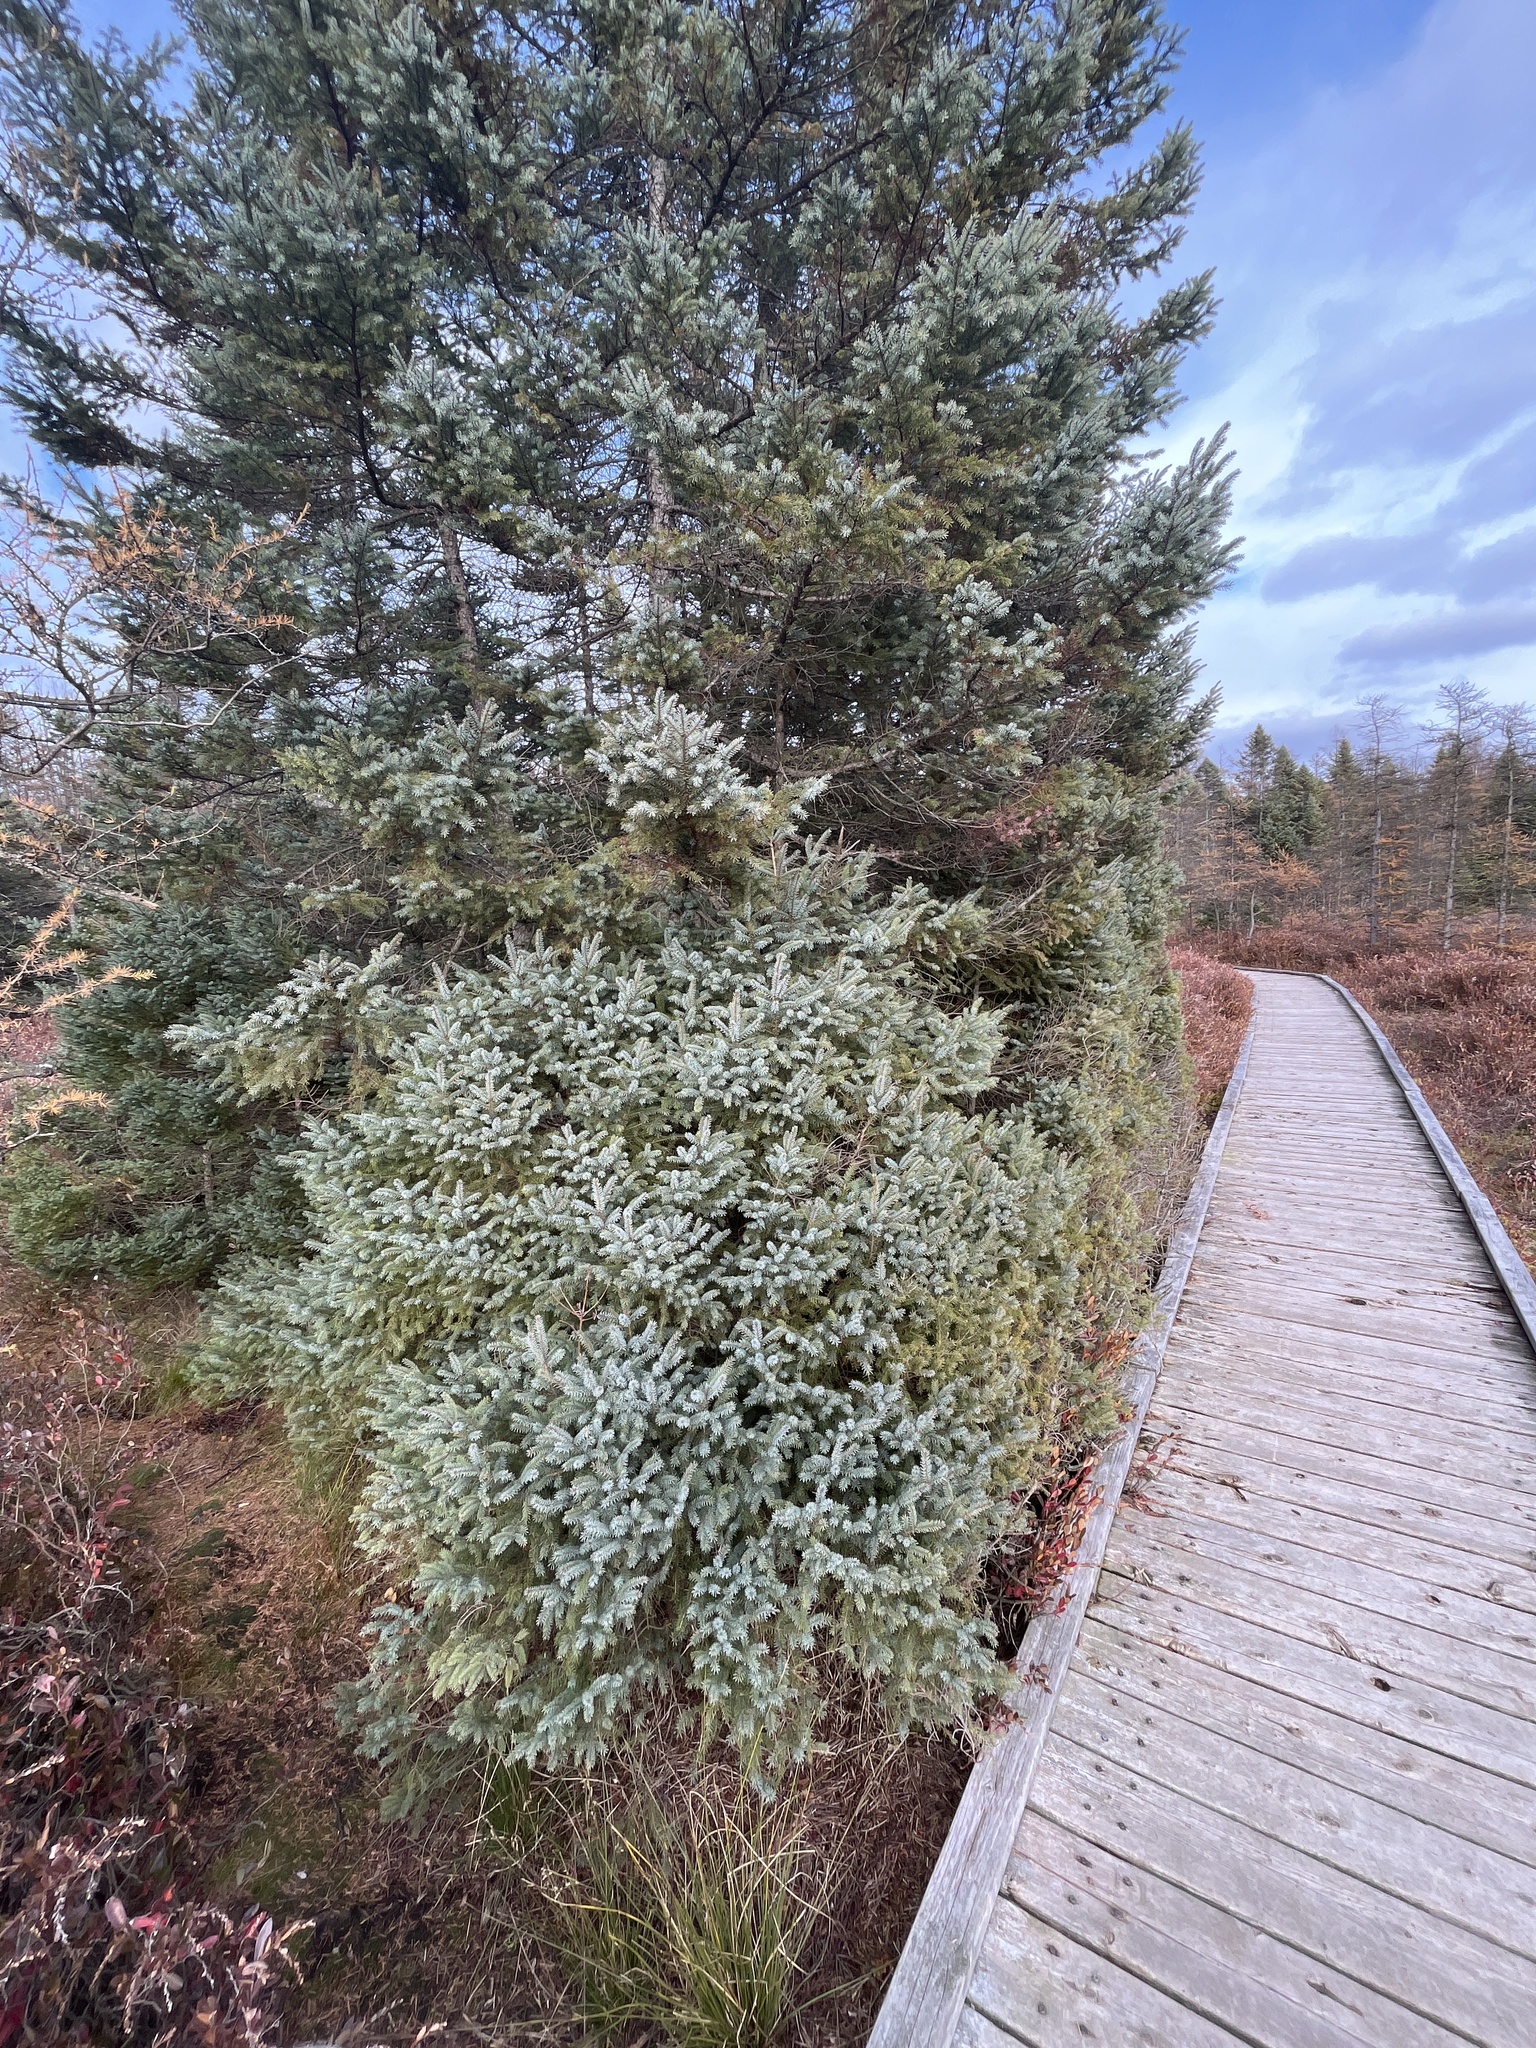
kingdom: Plantae
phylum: Tracheophyta
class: Pinopsida
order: Pinales
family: Pinaceae
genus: Picea
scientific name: Picea mariana
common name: Black spruce
